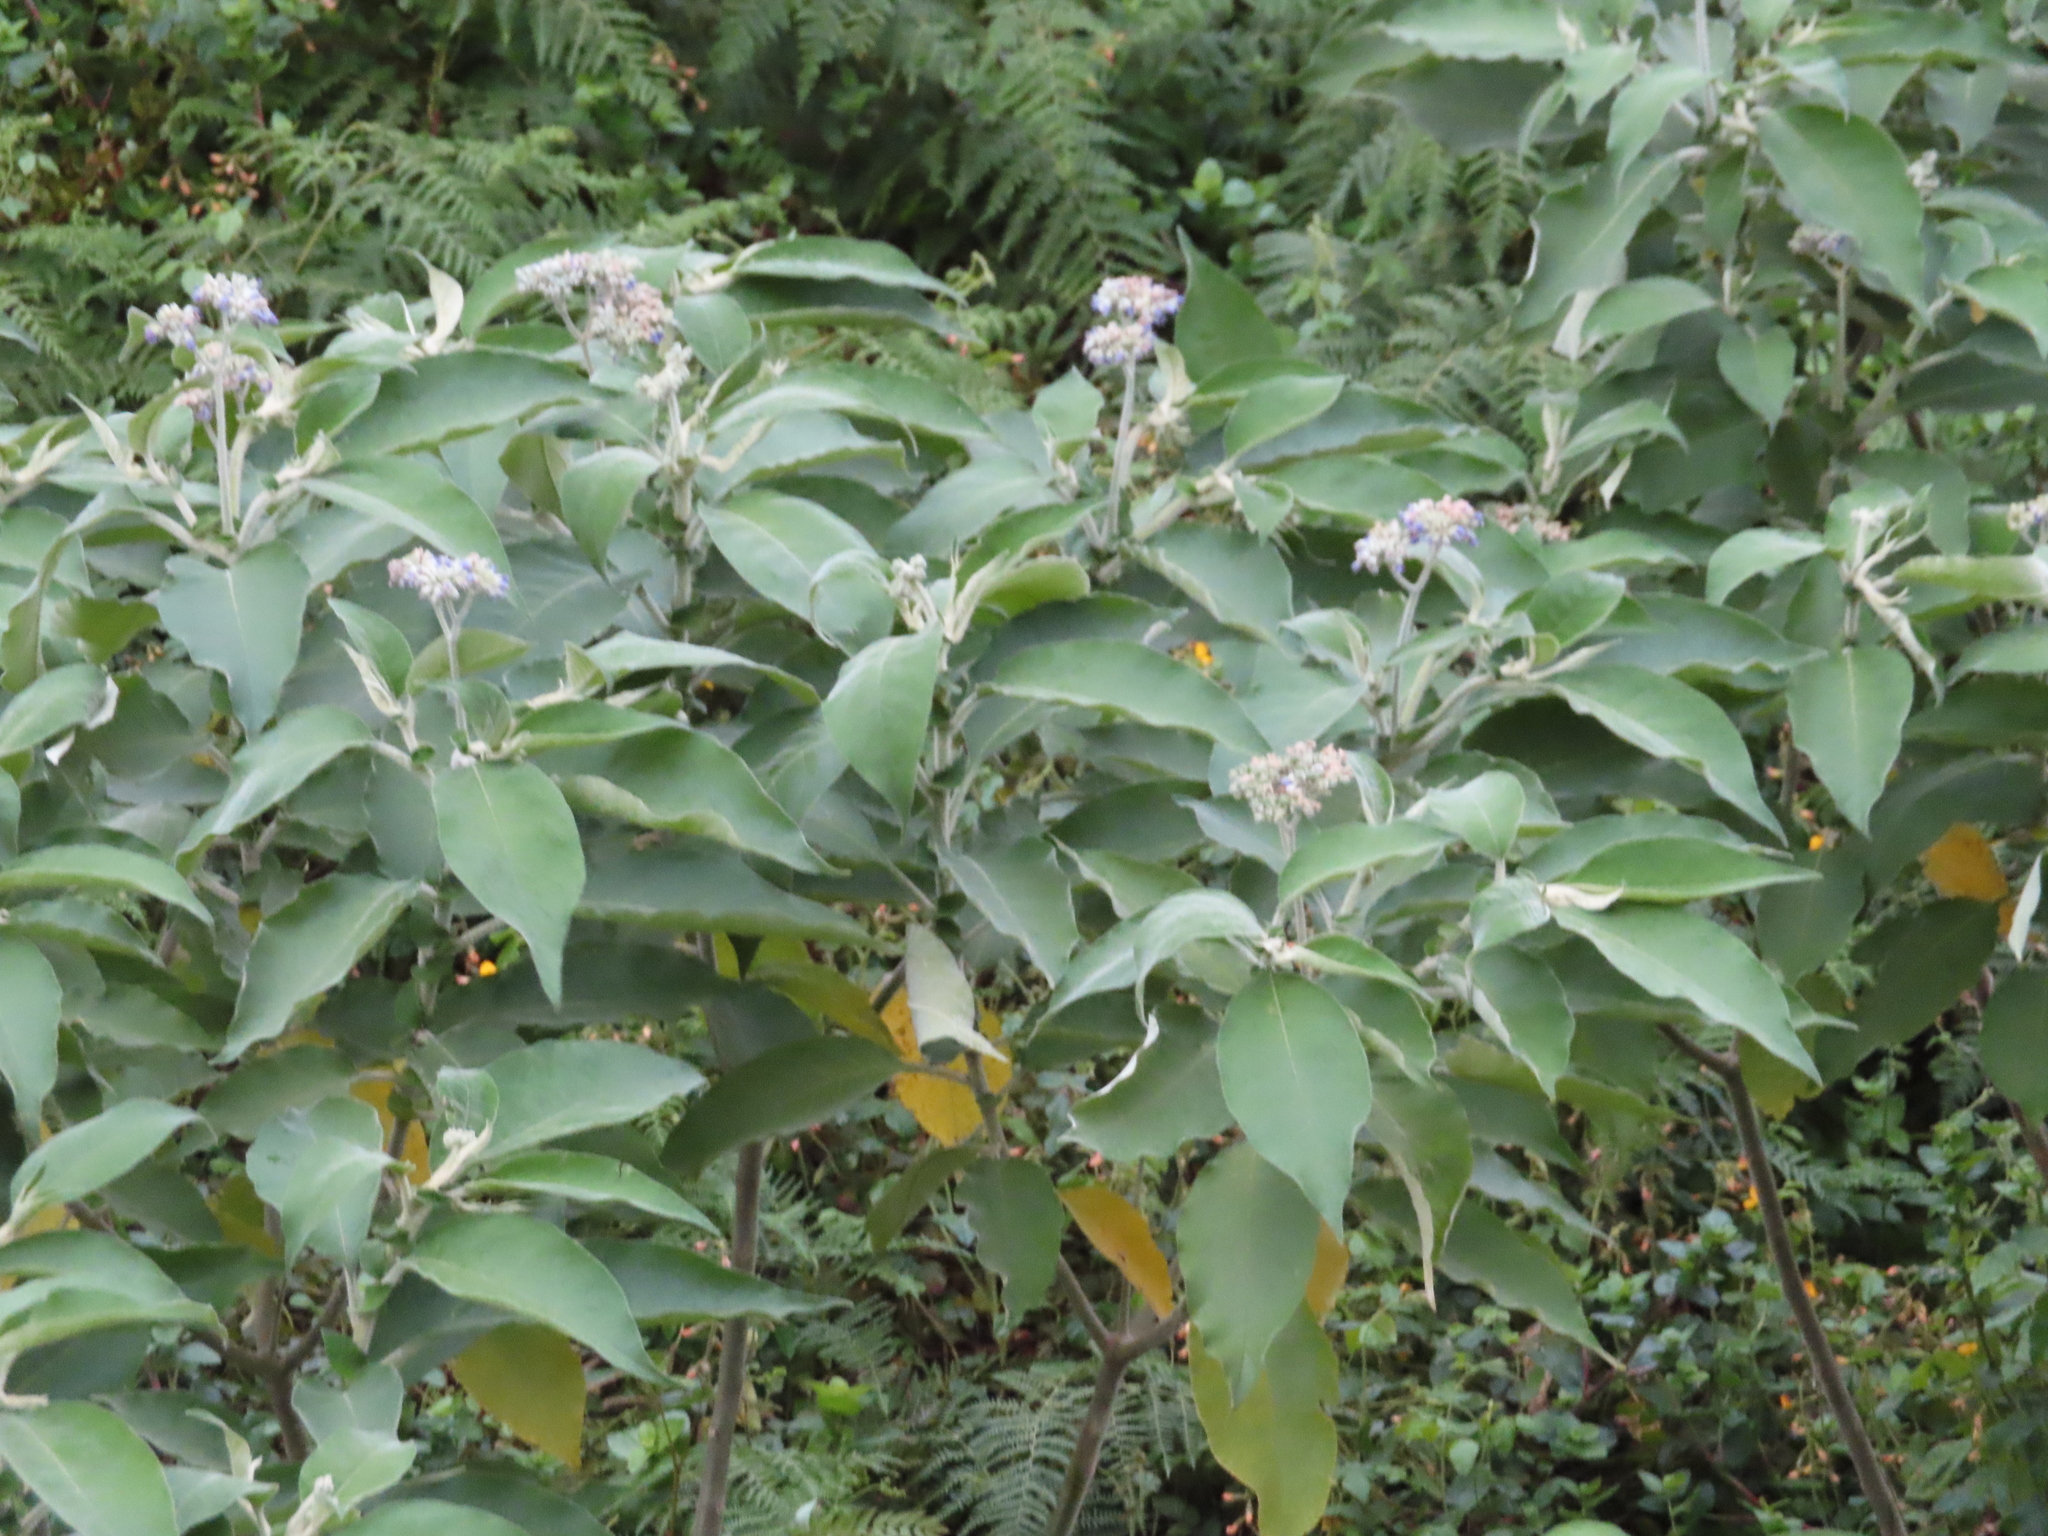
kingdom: Plantae
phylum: Tracheophyta
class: Magnoliopsida
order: Solanales
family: Solanaceae
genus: Solanum
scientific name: Solanum mauritianum
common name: Earleaf nightshade
